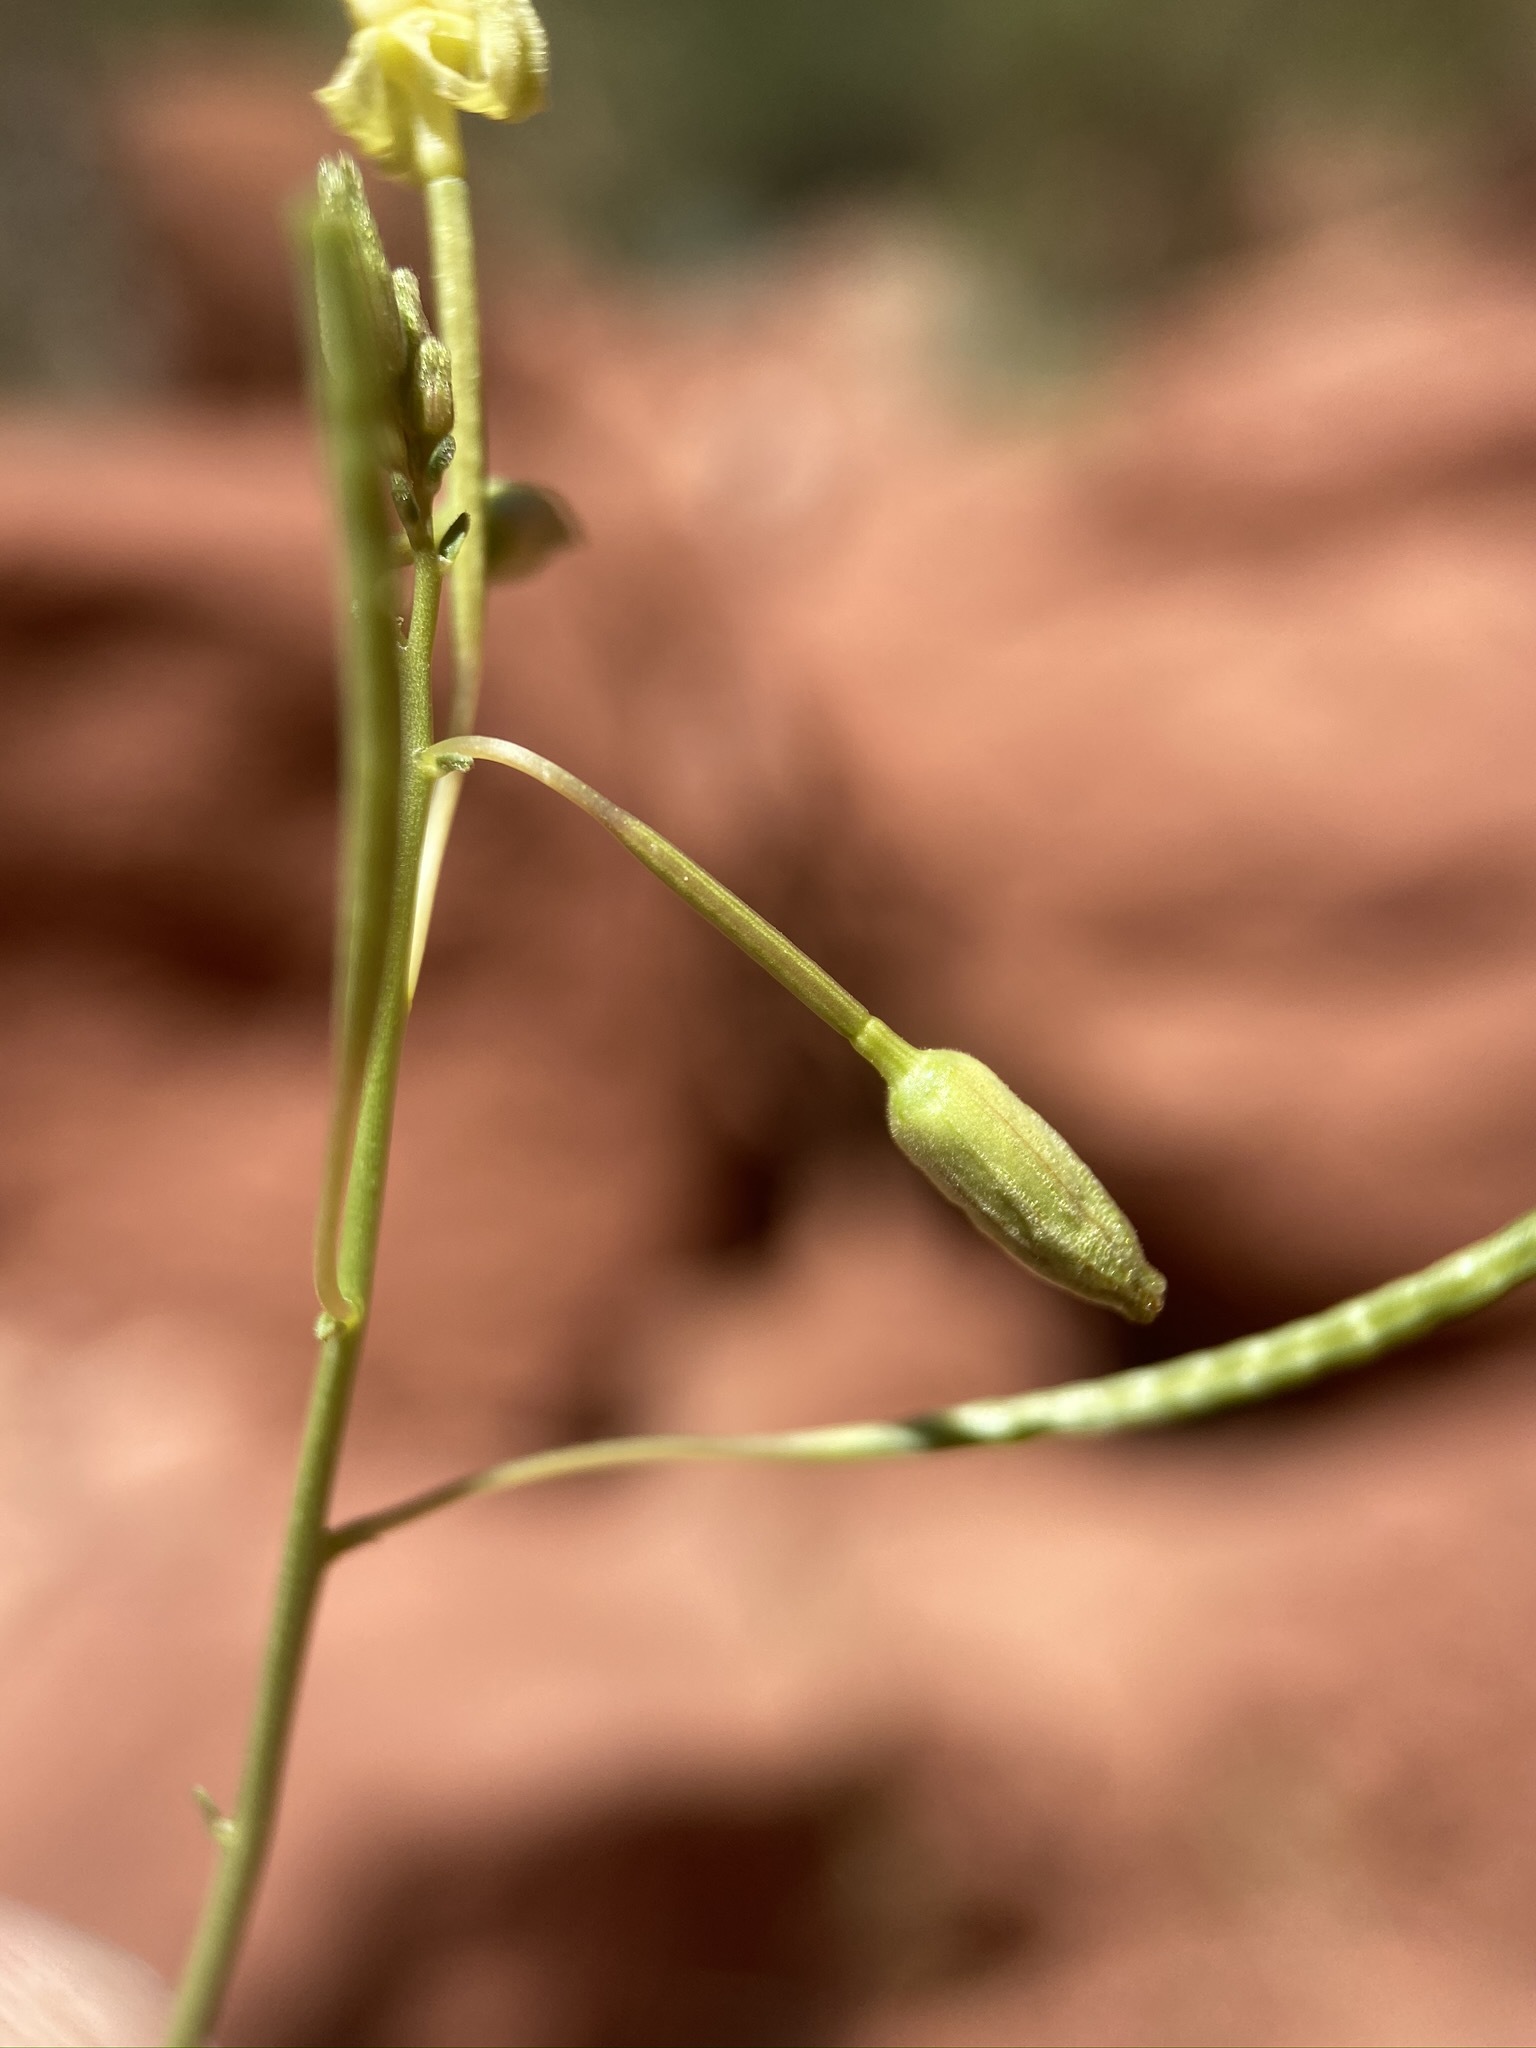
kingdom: Plantae
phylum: Tracheophyta
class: Magnoliopsida
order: Myrtales
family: Onagraceae
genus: Chylismia
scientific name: Chylismia walkeri
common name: Walker's suncup
